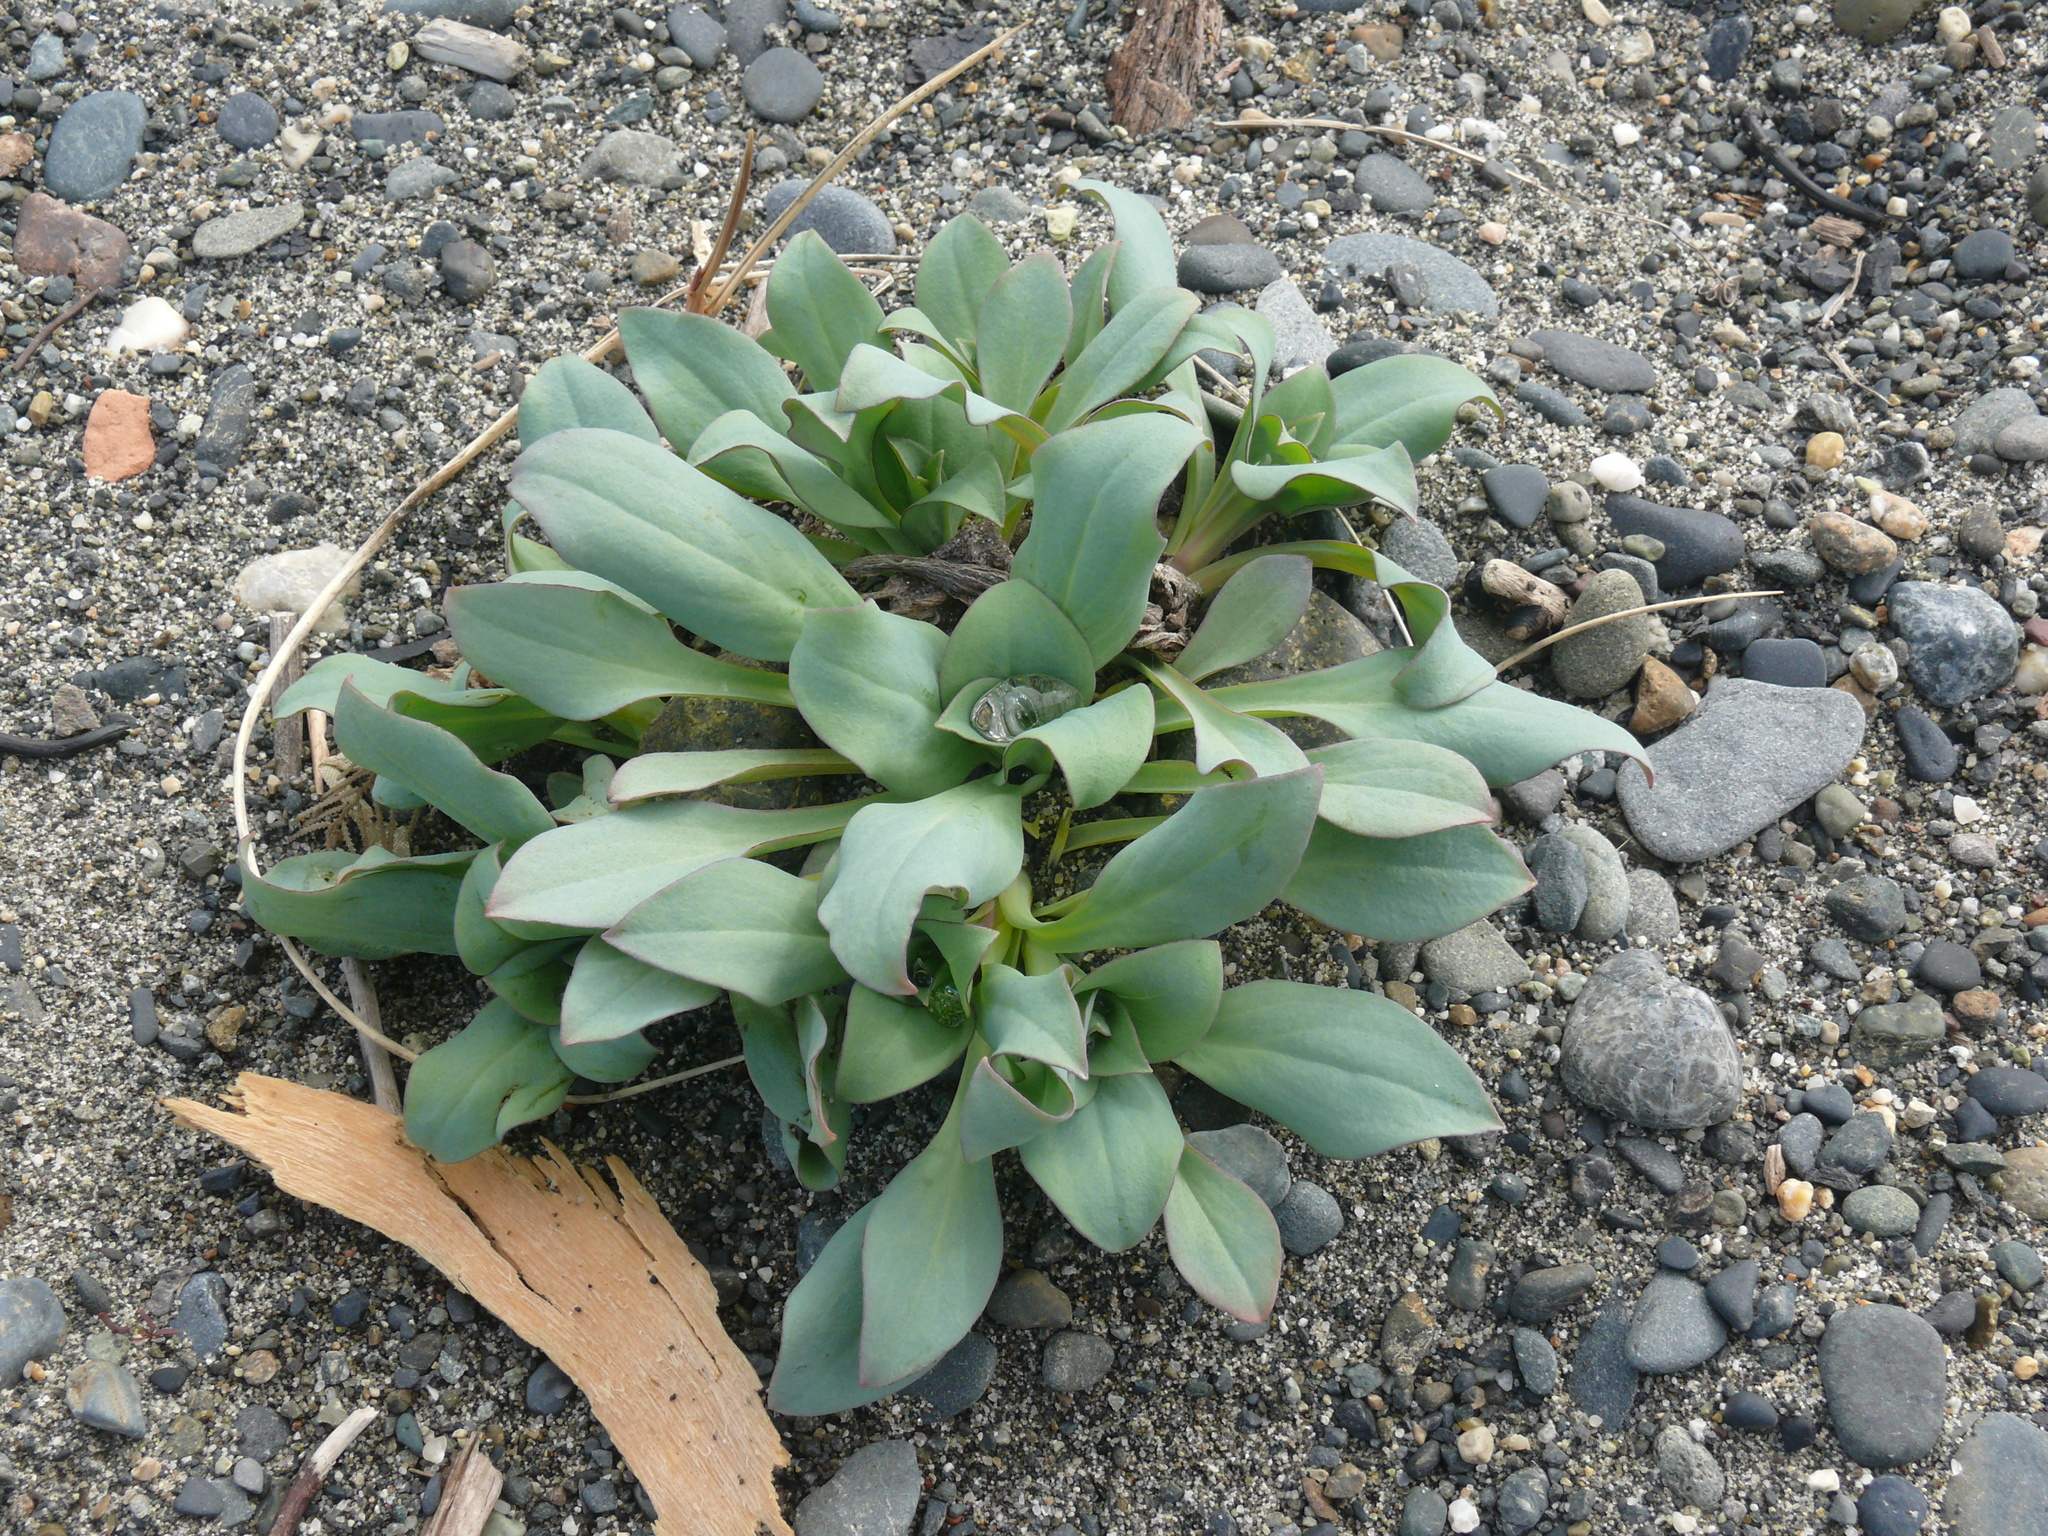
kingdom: Plantae
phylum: Tracheophyta
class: Magnoliopsida
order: Boraginales
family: Boraginaceae
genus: Mertensia
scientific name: Mertensia maritima
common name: Oysterplant
